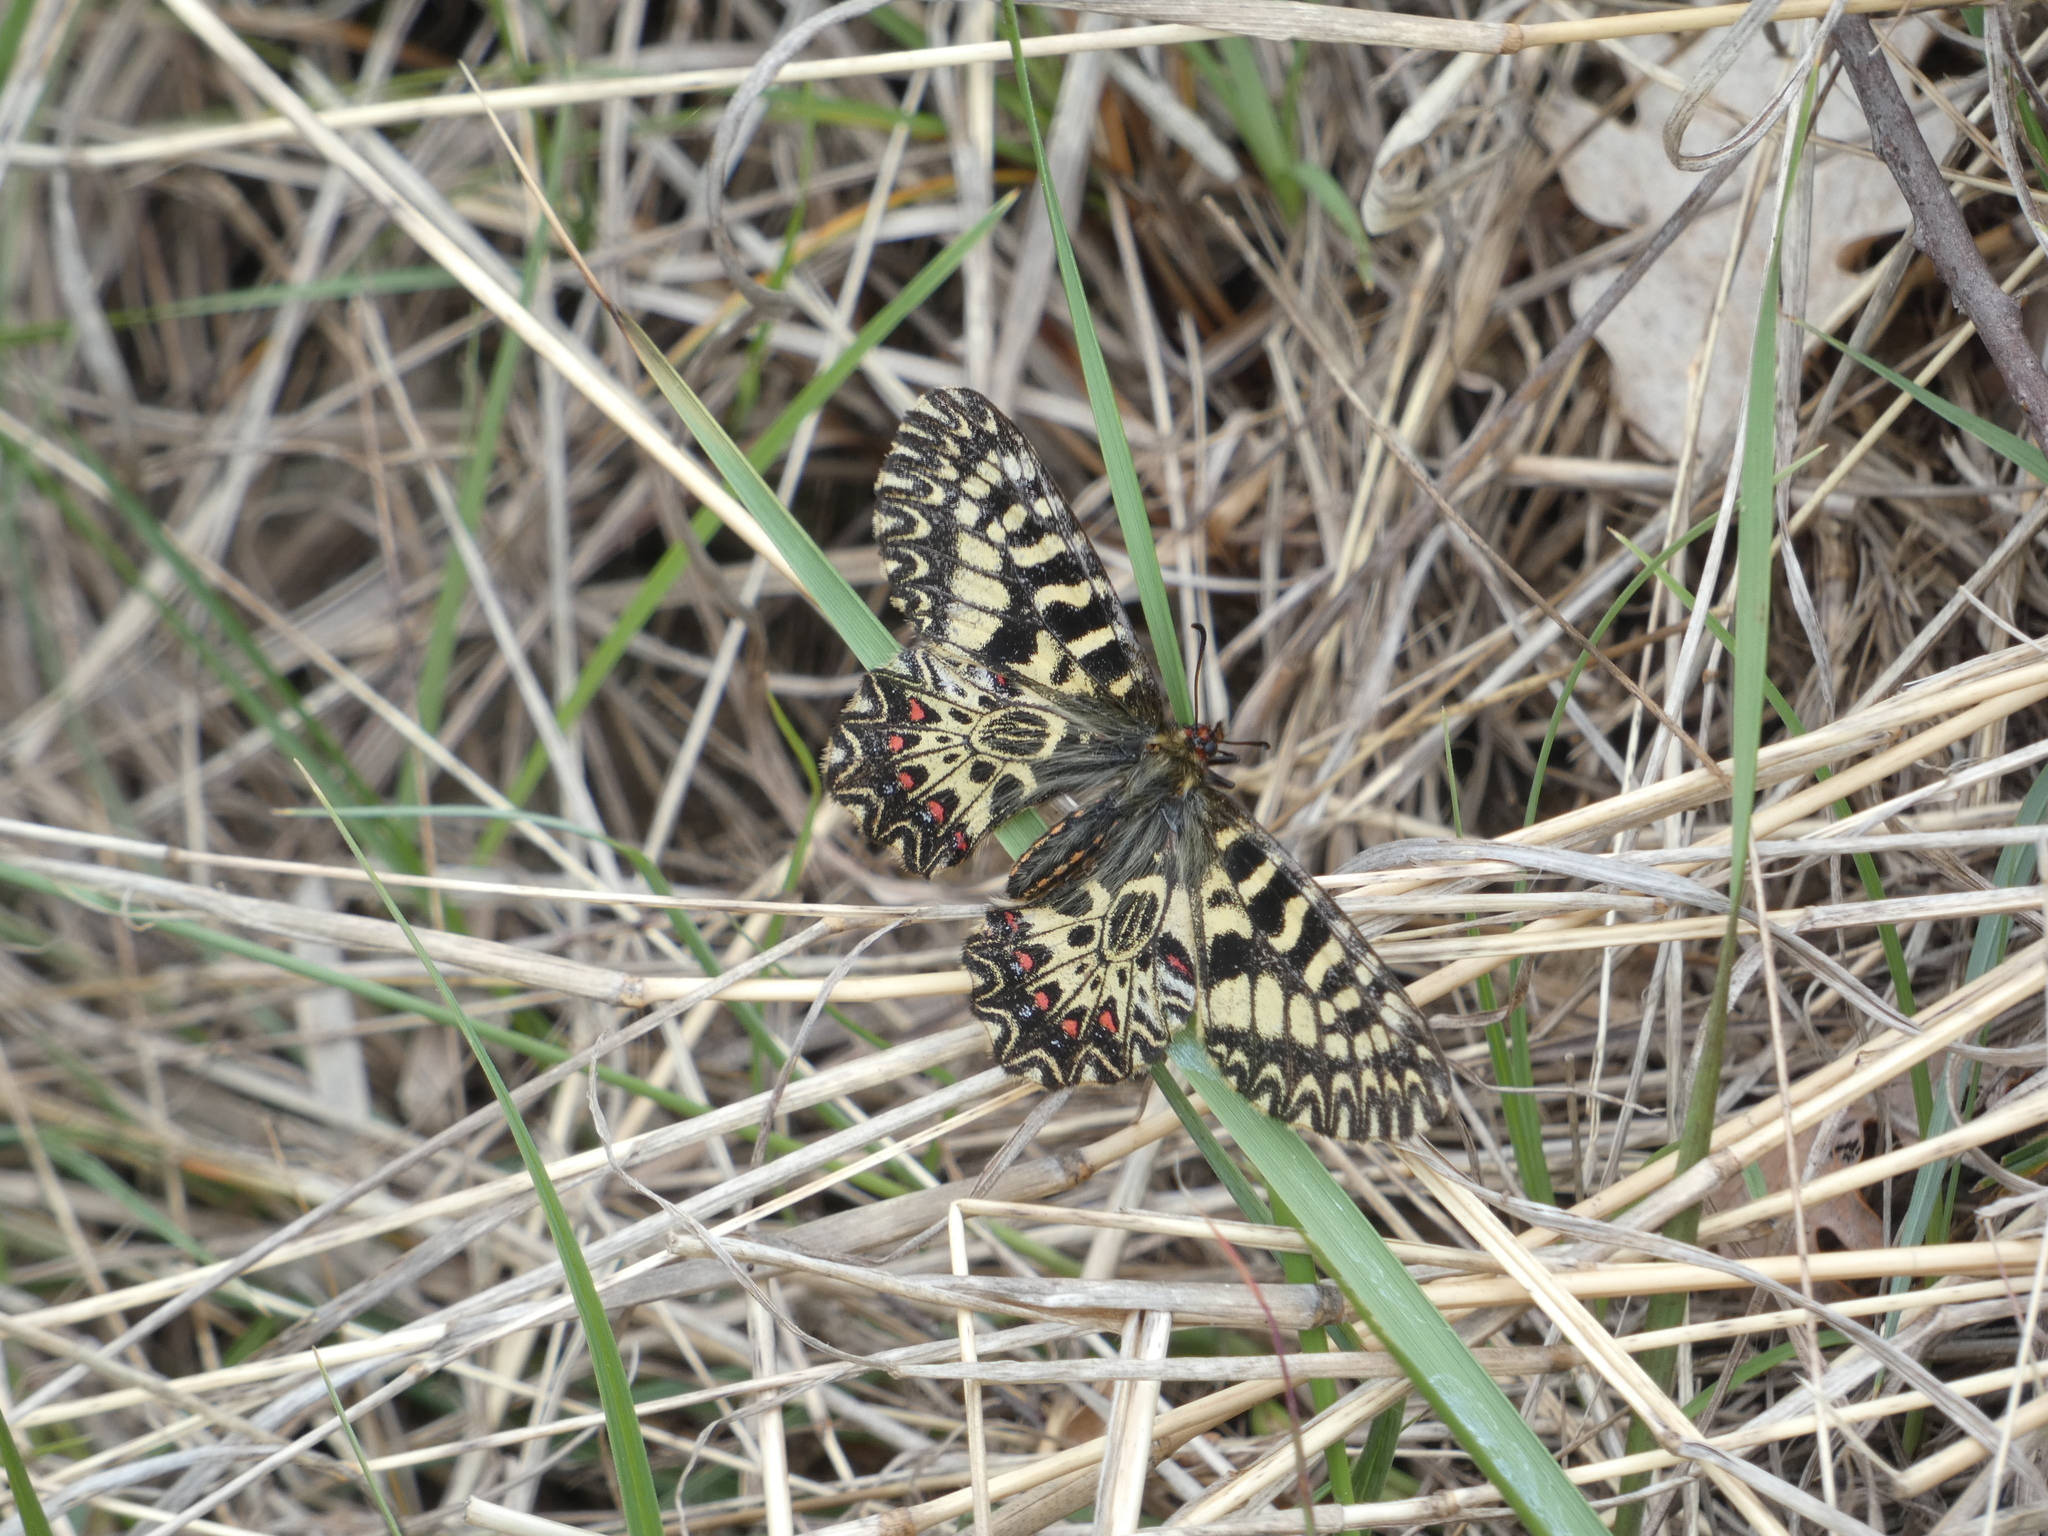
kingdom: Animalia
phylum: Arthropoda
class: Insecta
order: Lepidoptera
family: Papilionidae
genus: Zerynthia
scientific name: Zerynthia polyxena
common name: Southern festoon
